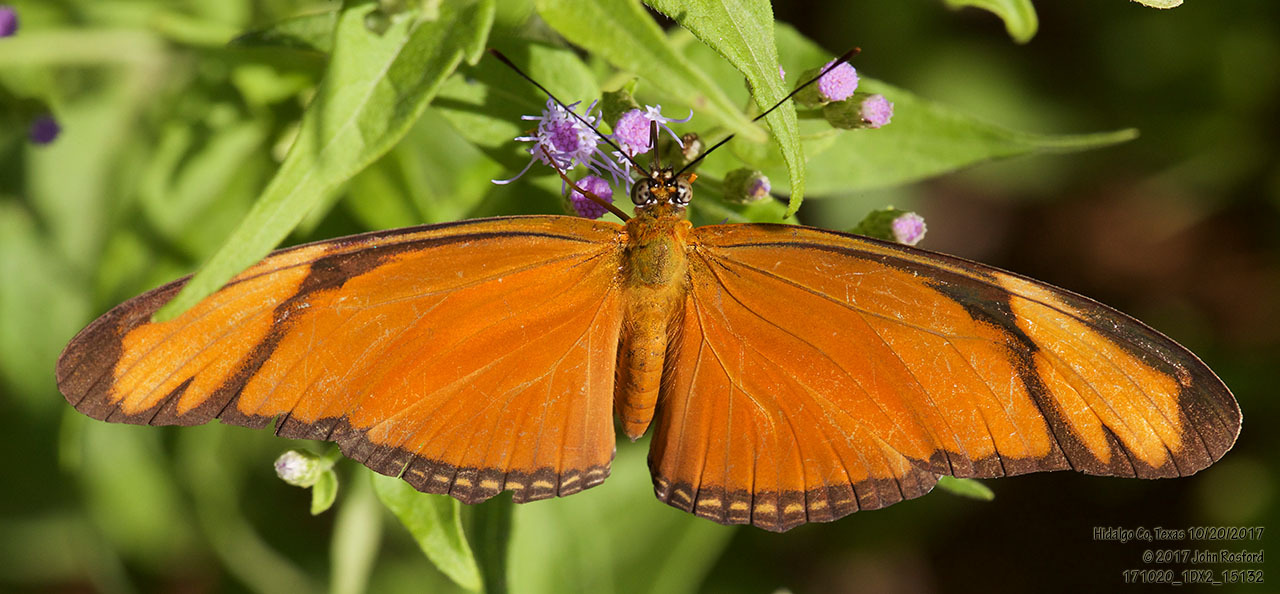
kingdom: Animalia
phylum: Arthropoda
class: Insecta
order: Lepidoptera
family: Nymphalidae
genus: Dryas
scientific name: Dryas iulia
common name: Flambeau
